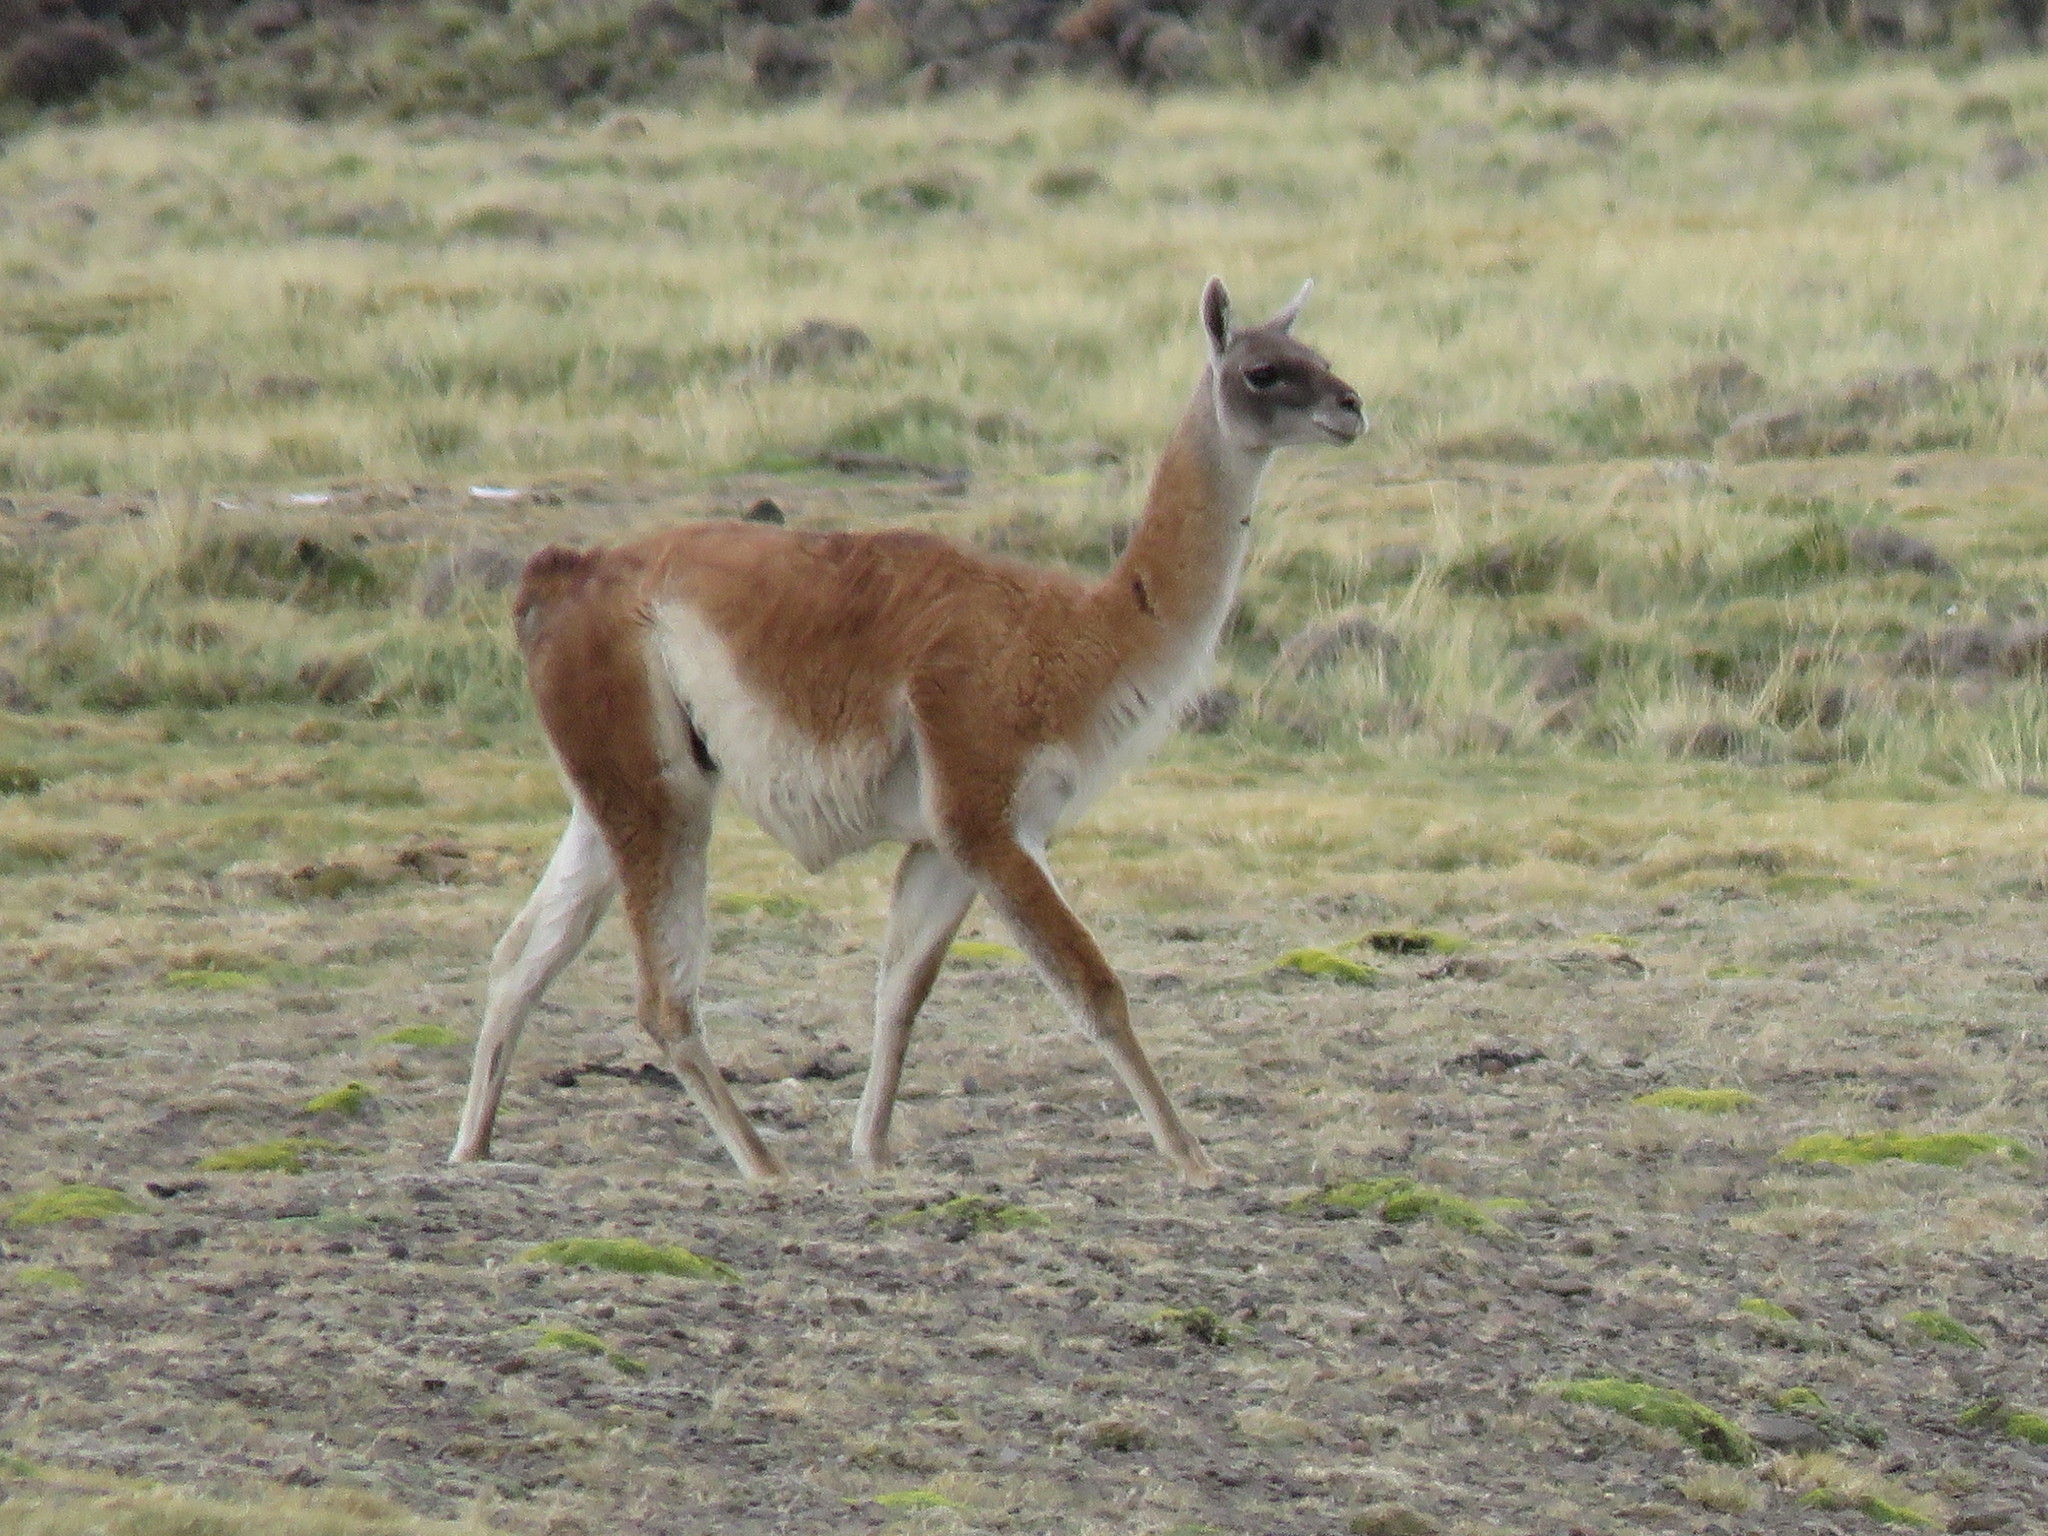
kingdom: Animalia
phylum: Chordata
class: Mammalia
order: Artiodactyla
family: Camelidae
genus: Lama
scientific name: Lama glama
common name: Llama
